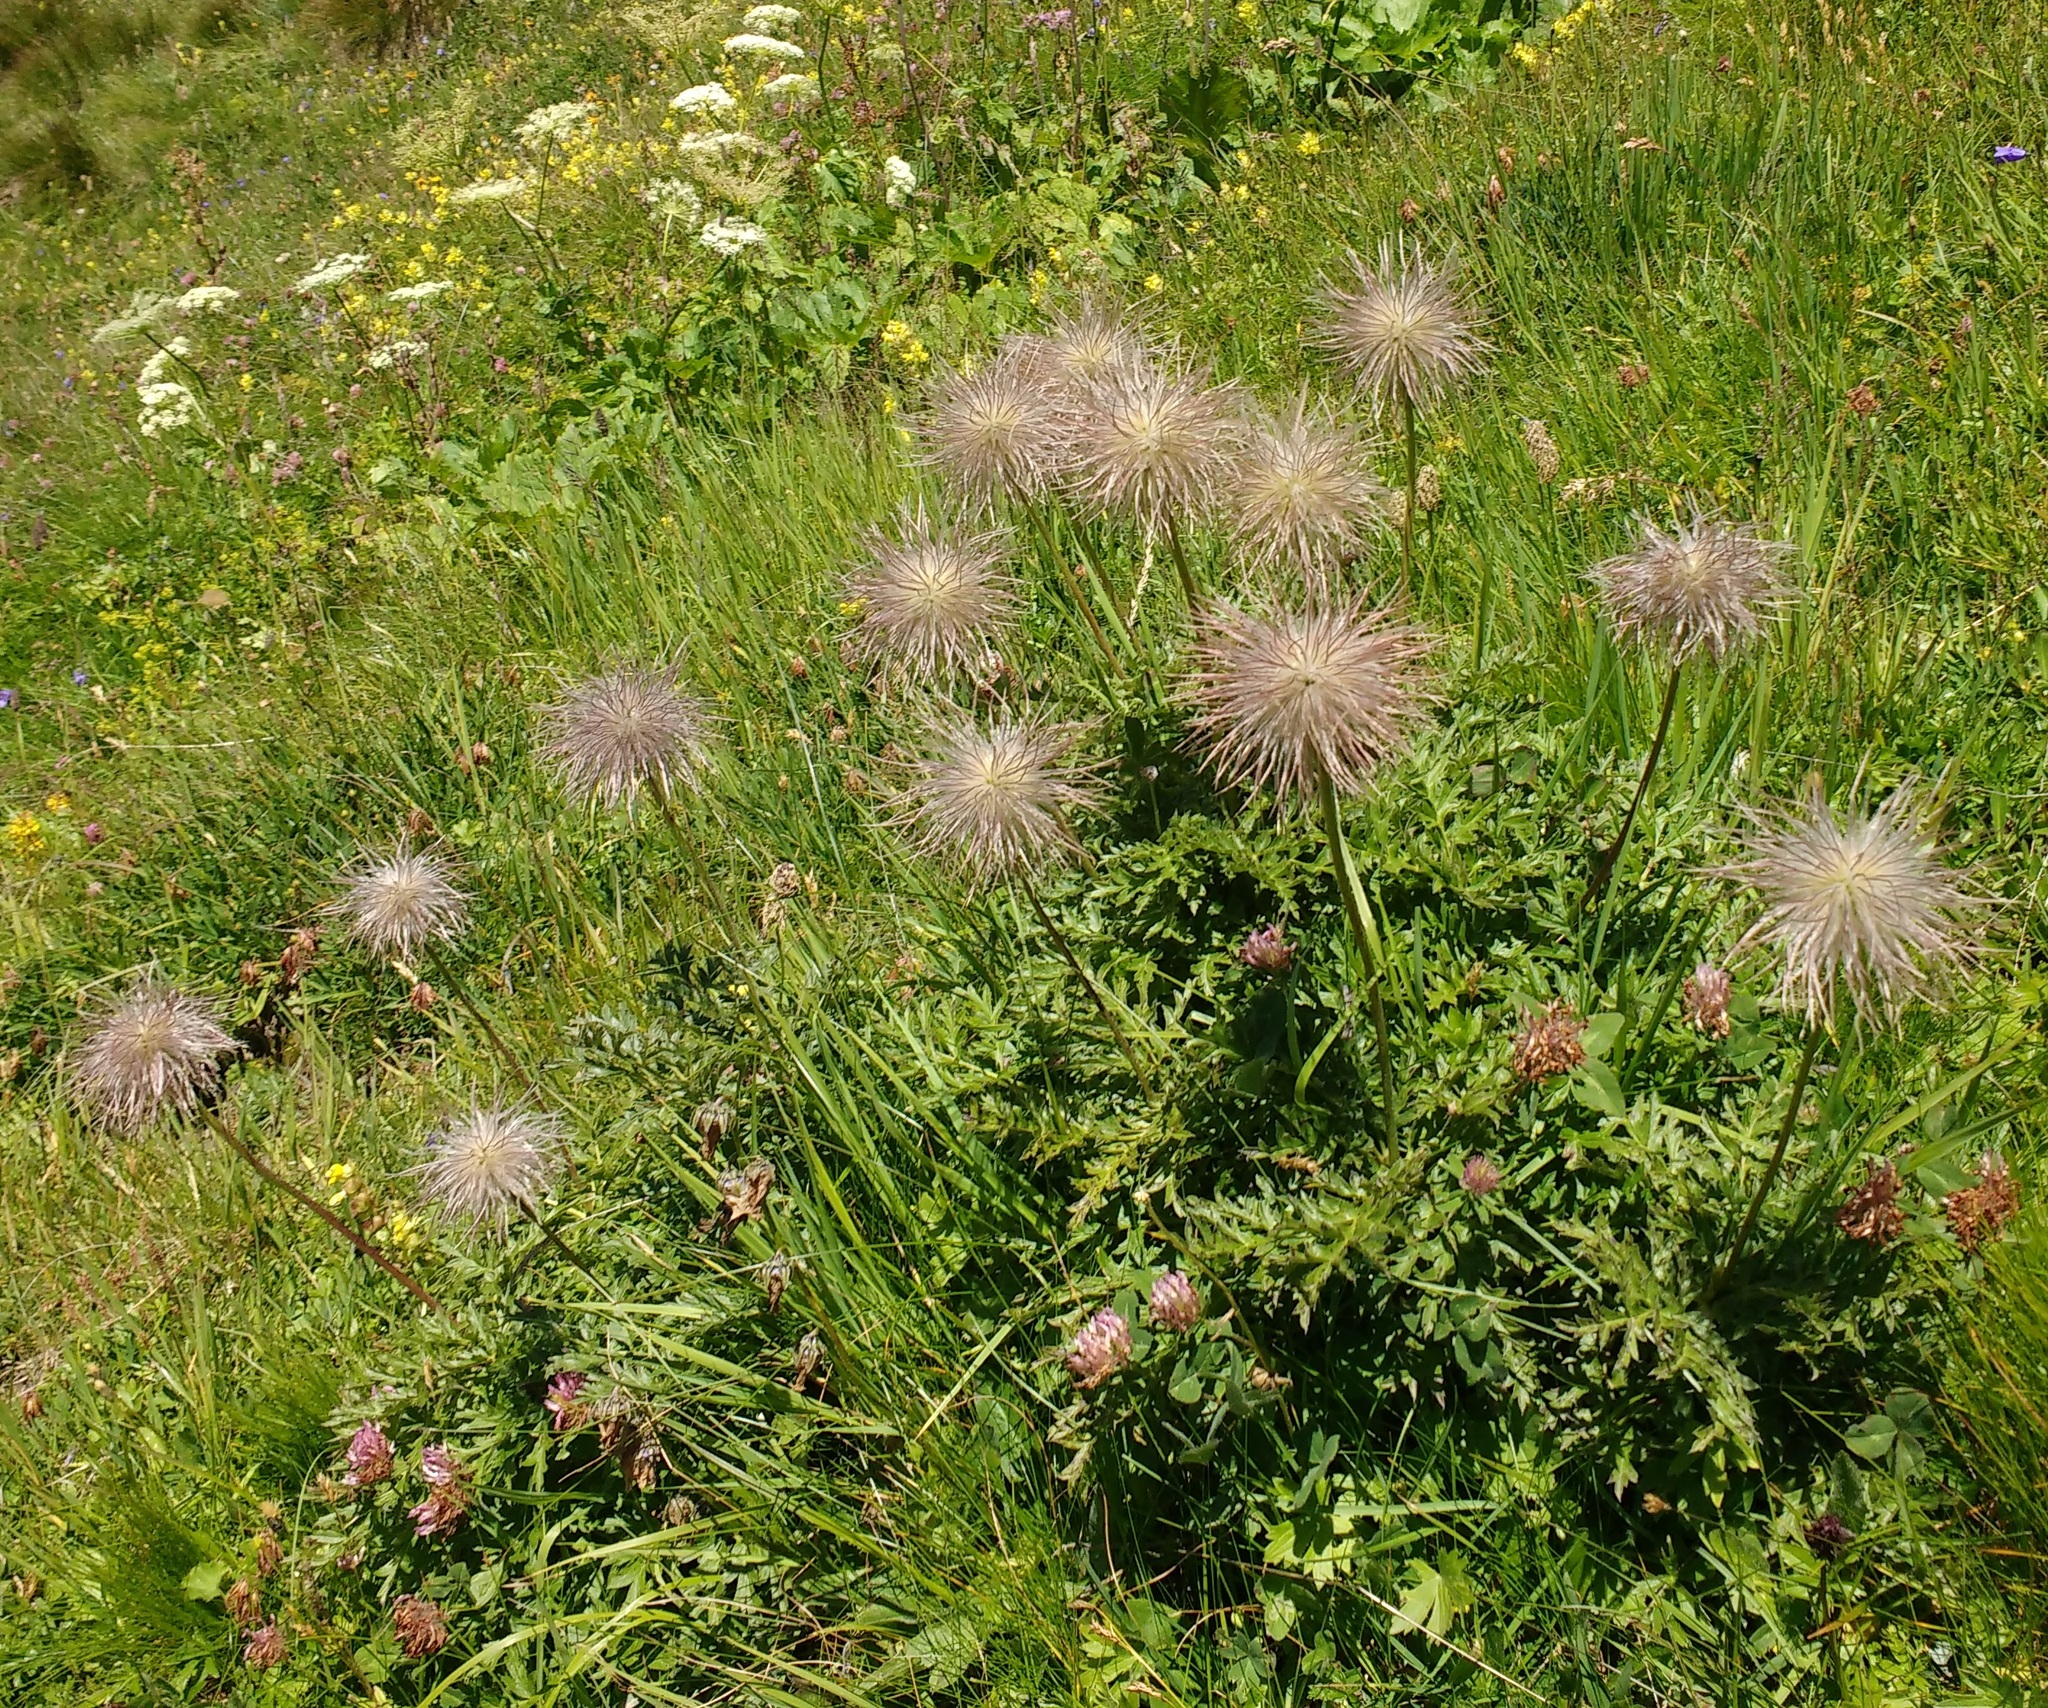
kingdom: Plantae
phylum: Tracheophyta
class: Magnoliopsida
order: Ranunculales
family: Ranunculaceae
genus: Pulsatilla
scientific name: Pulsatilla alpina
